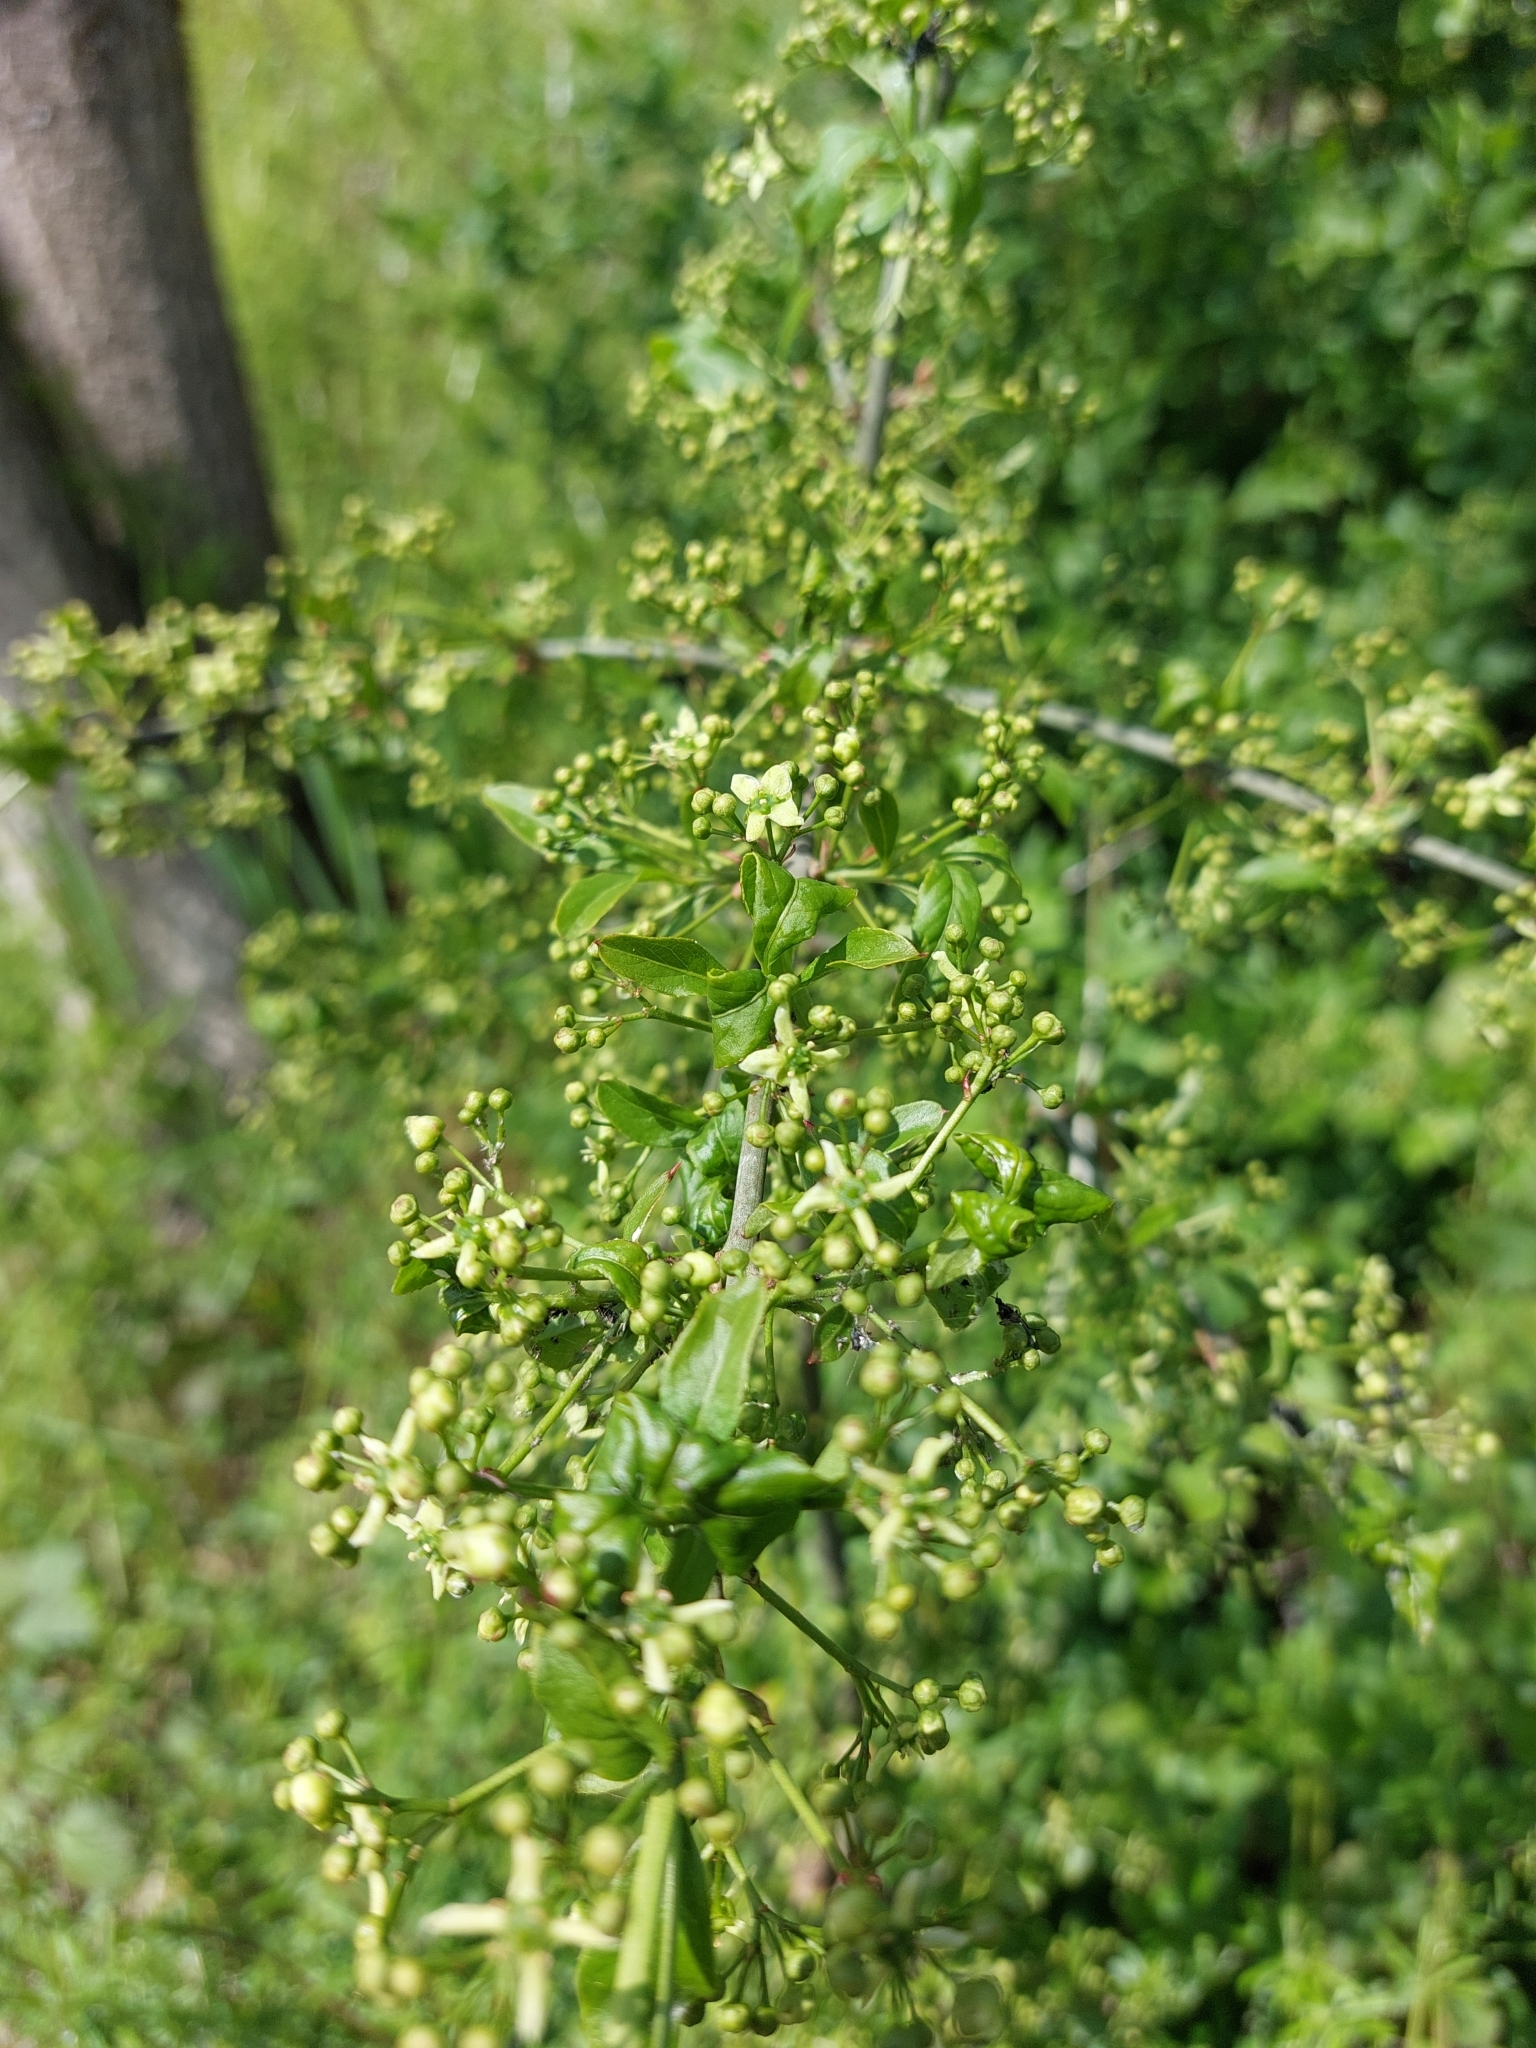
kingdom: Plantae
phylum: Tracheophyta
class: Magnoliopsida
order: Celastrales
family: Celastraceae
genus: Euonymus
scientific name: Euonymus europaeus
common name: Spindle
